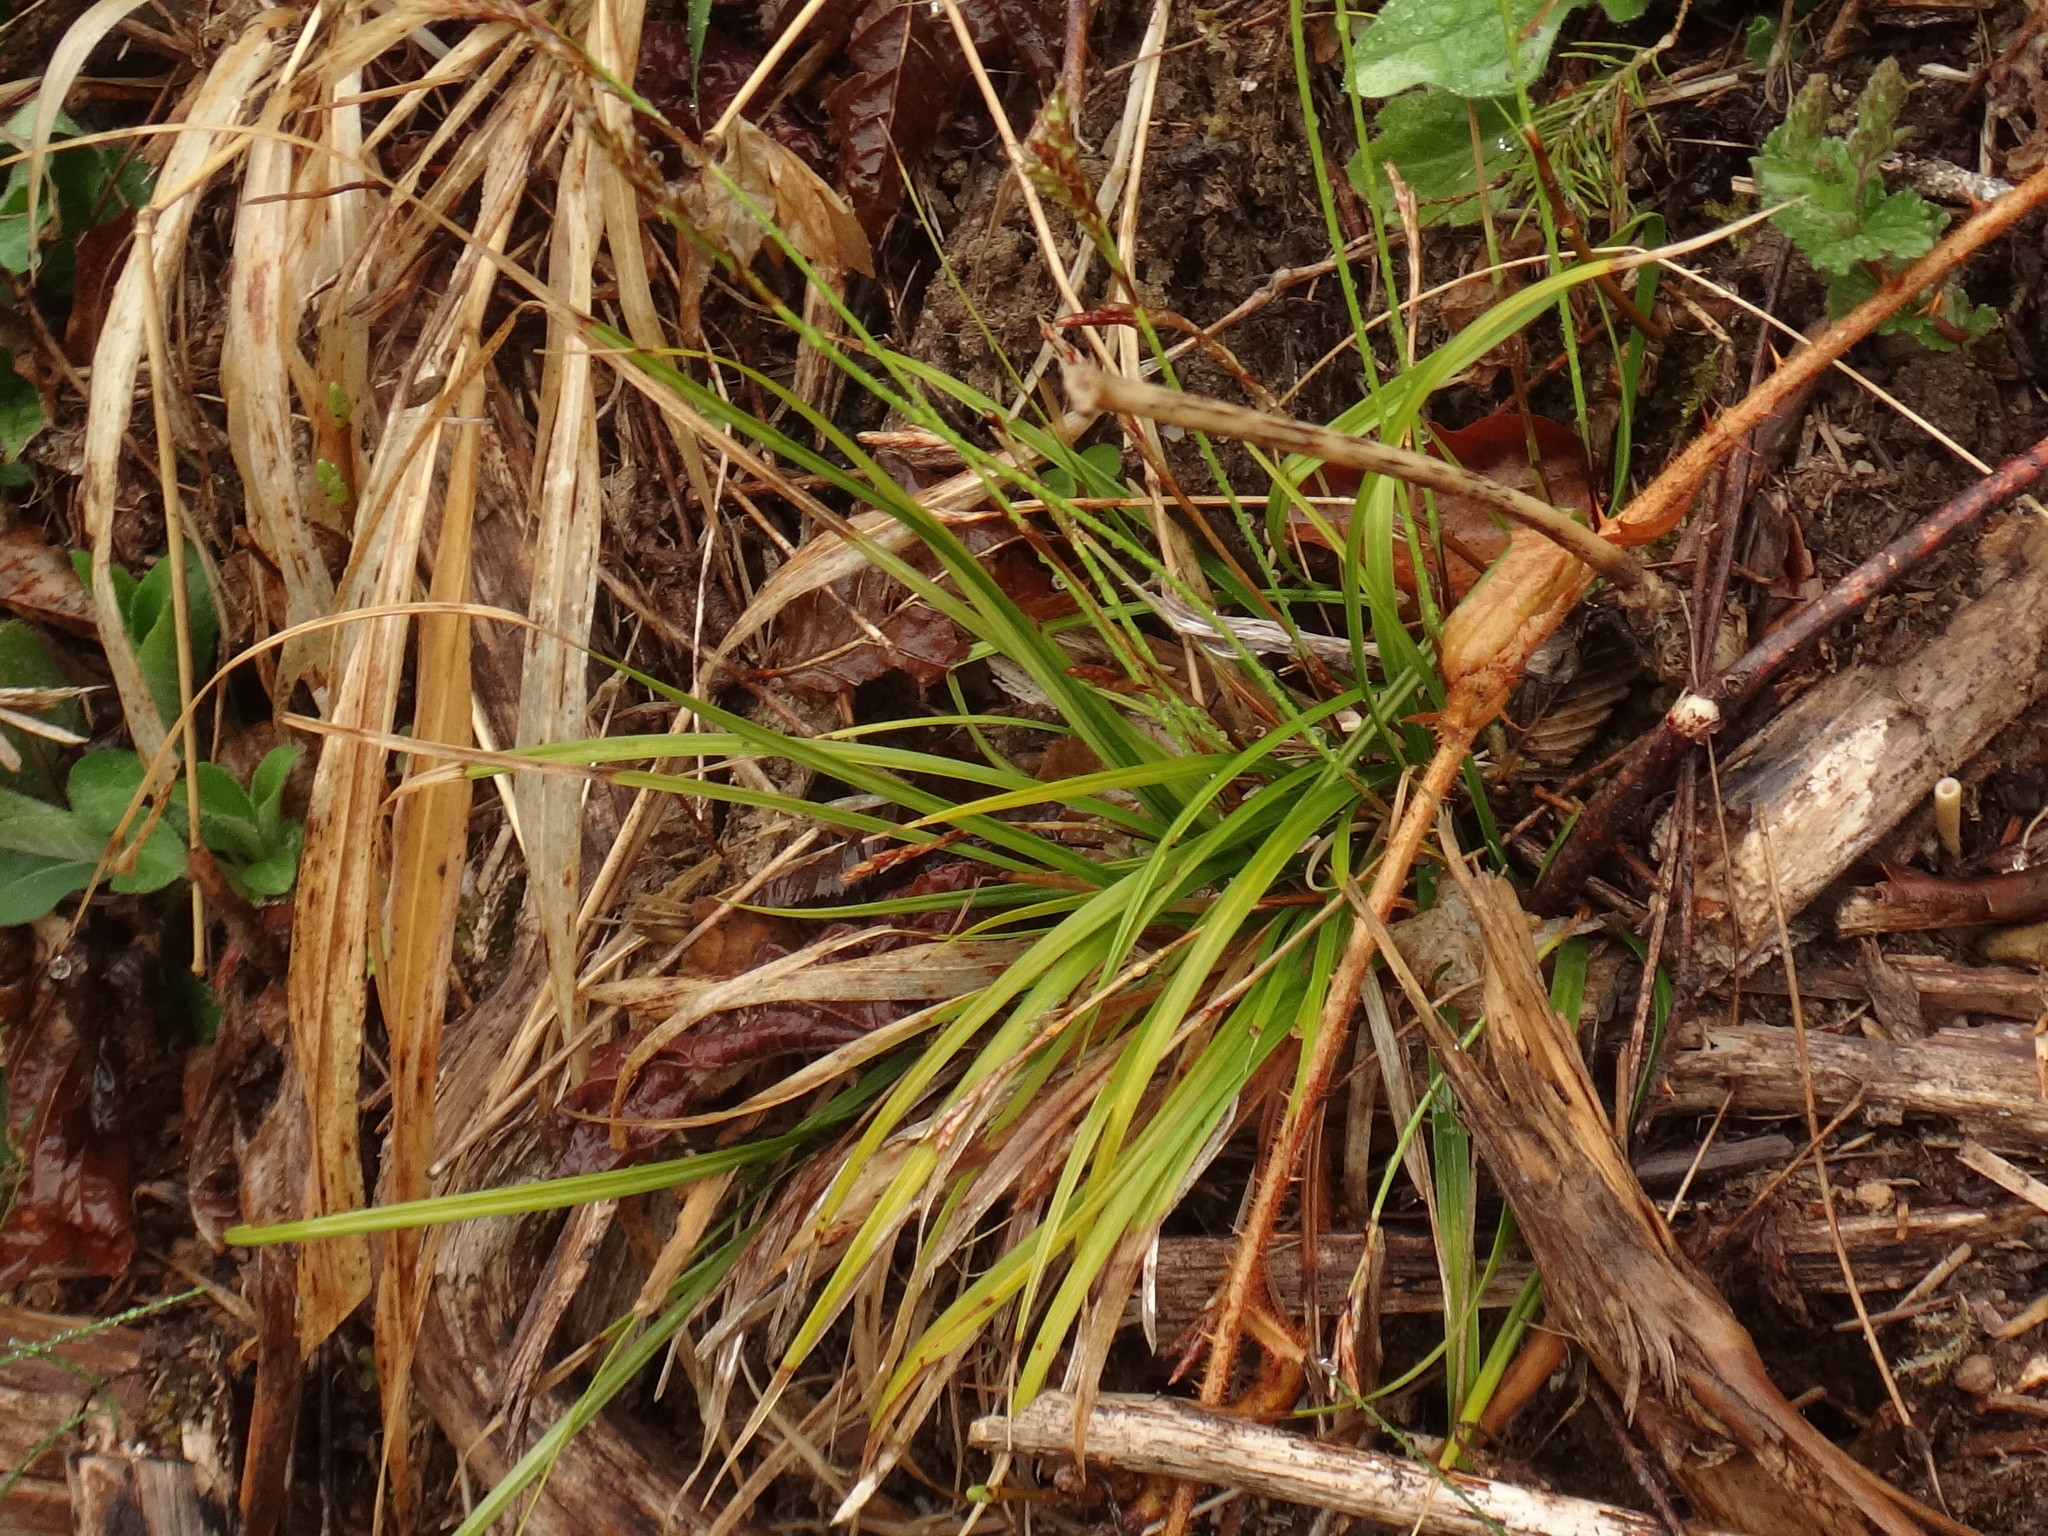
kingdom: Plantae
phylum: Tracheophyta
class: Liliopsida
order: Poales
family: Cyperaceae
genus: Carex
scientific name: Carex digitata
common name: Fingered sedge
